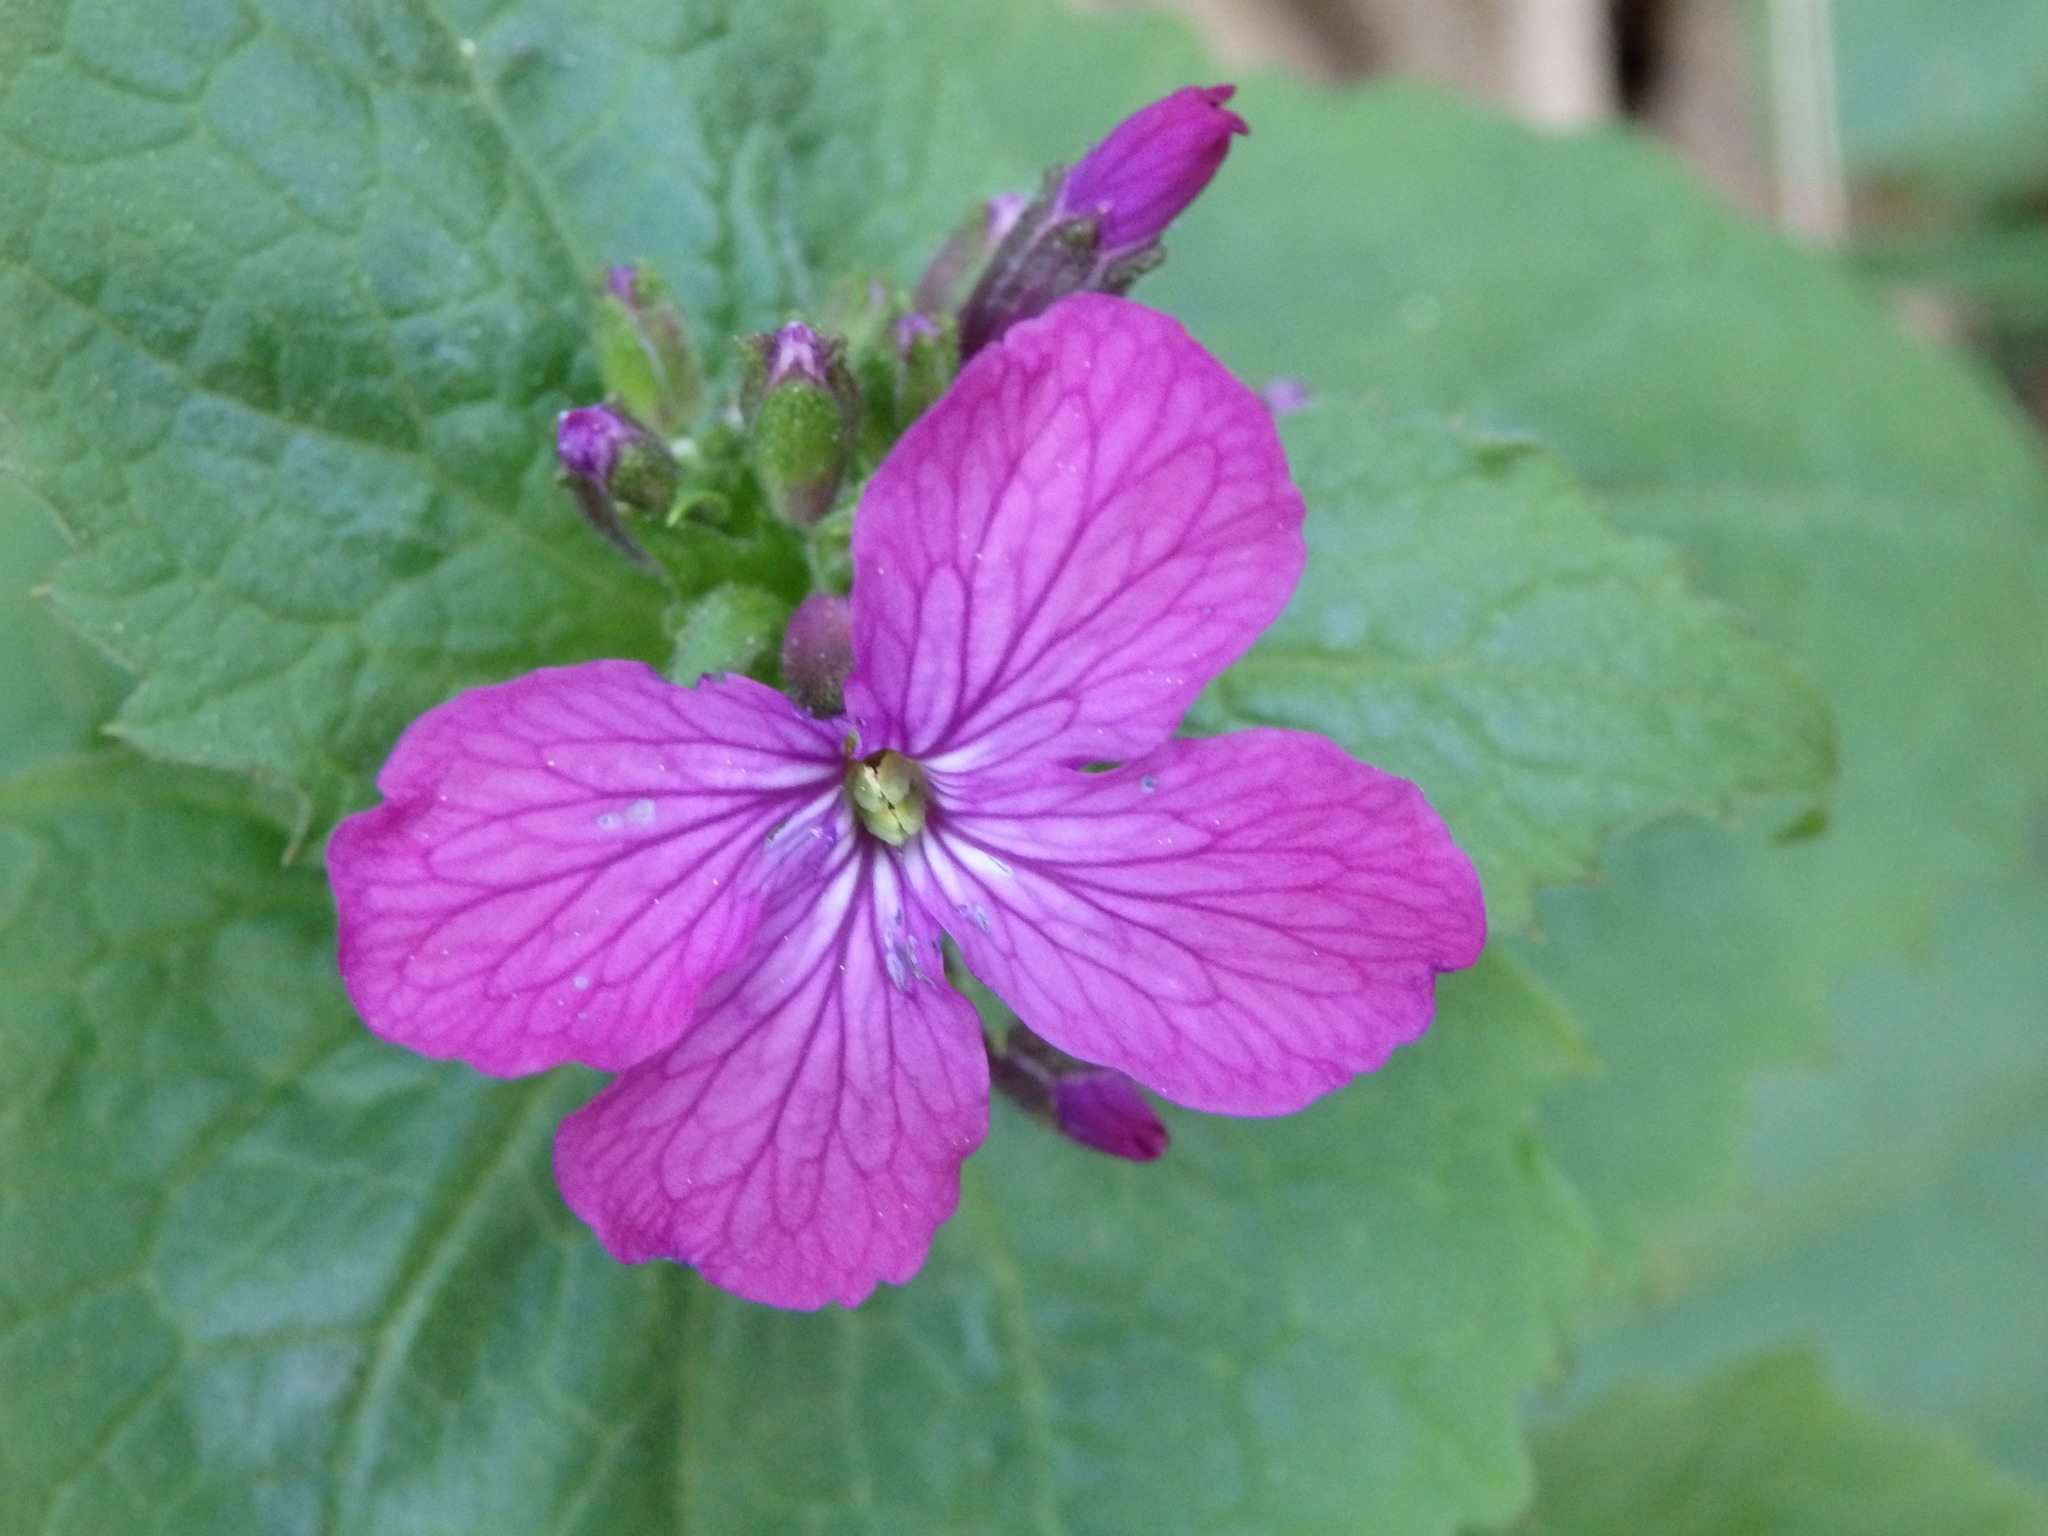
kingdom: Plantae
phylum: Tracheophyta
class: Magnoliopsida
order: Brassicales
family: Brassicaceae
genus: Lunaria
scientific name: Lunaria annua
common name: Honesty
